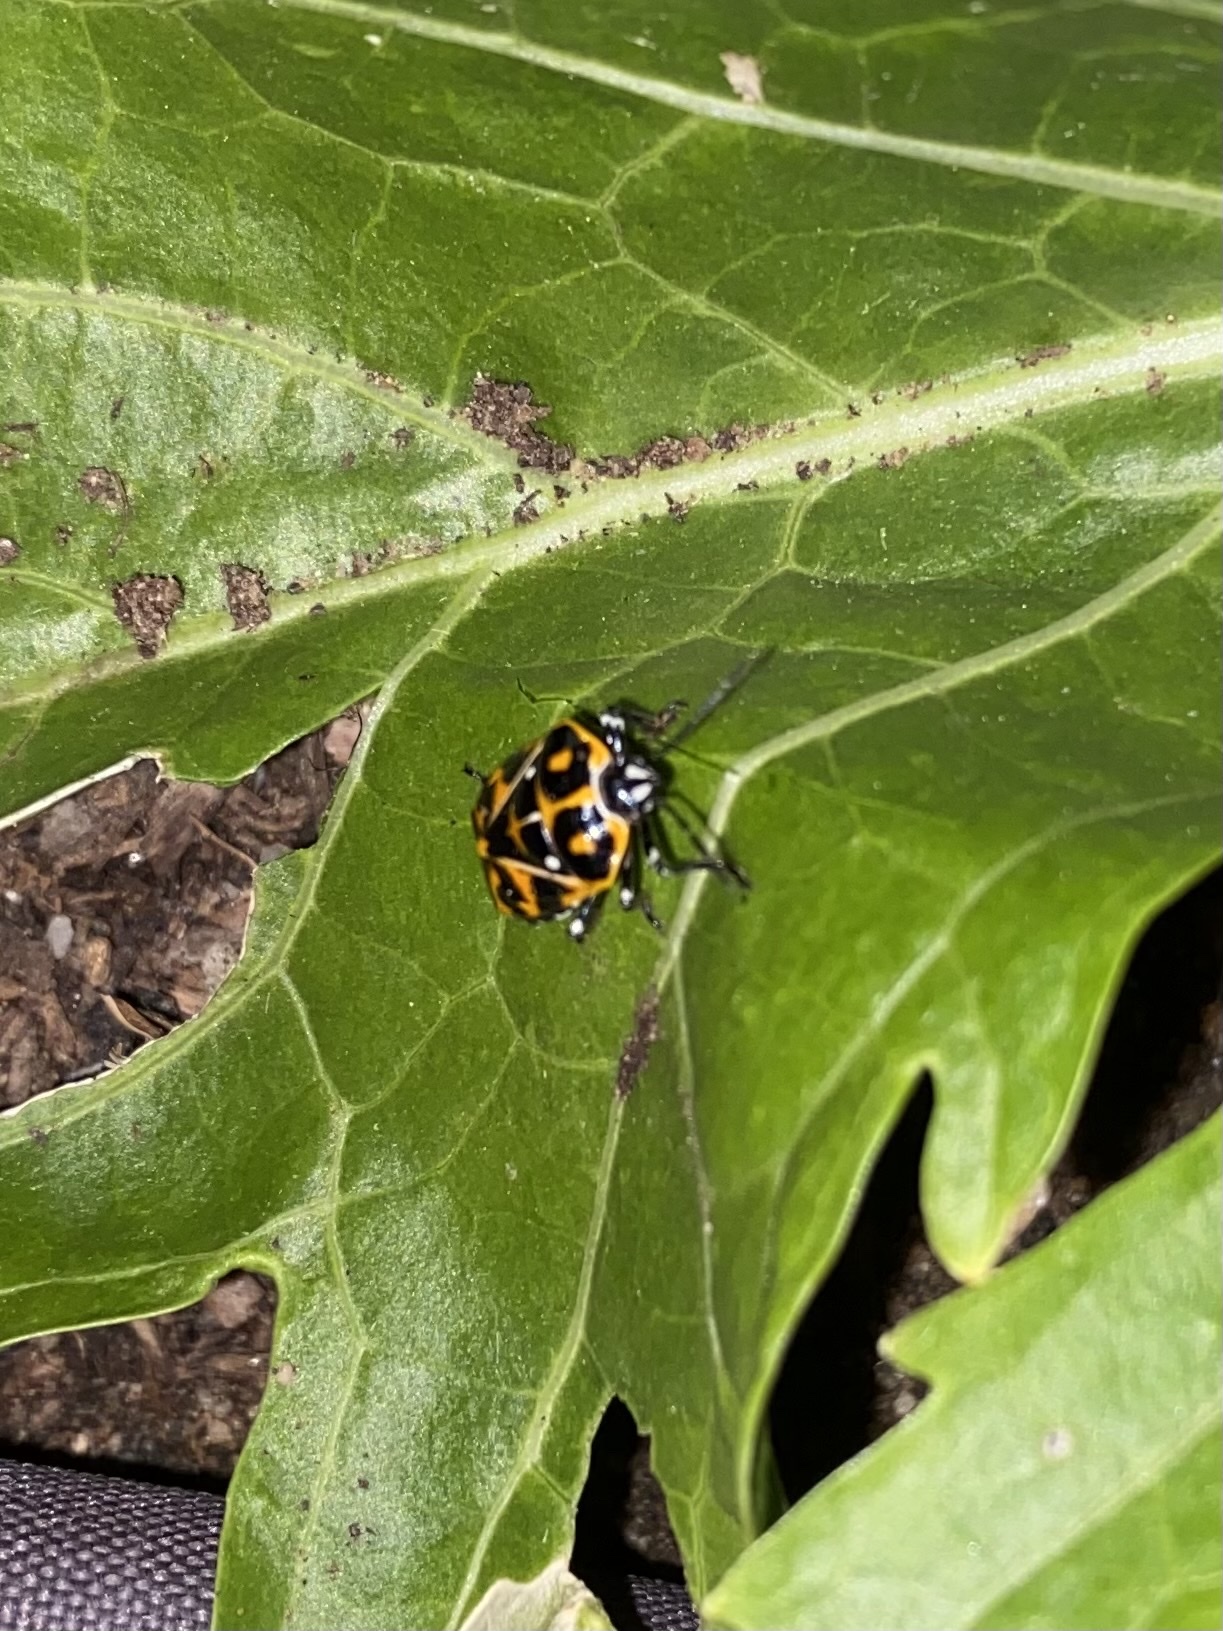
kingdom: Animalia
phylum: Arthropoda
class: Insecta
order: Hemiptera
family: Pentatomidae
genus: Murgantia
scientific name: Murgantia histrionica
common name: Harlequin bug
